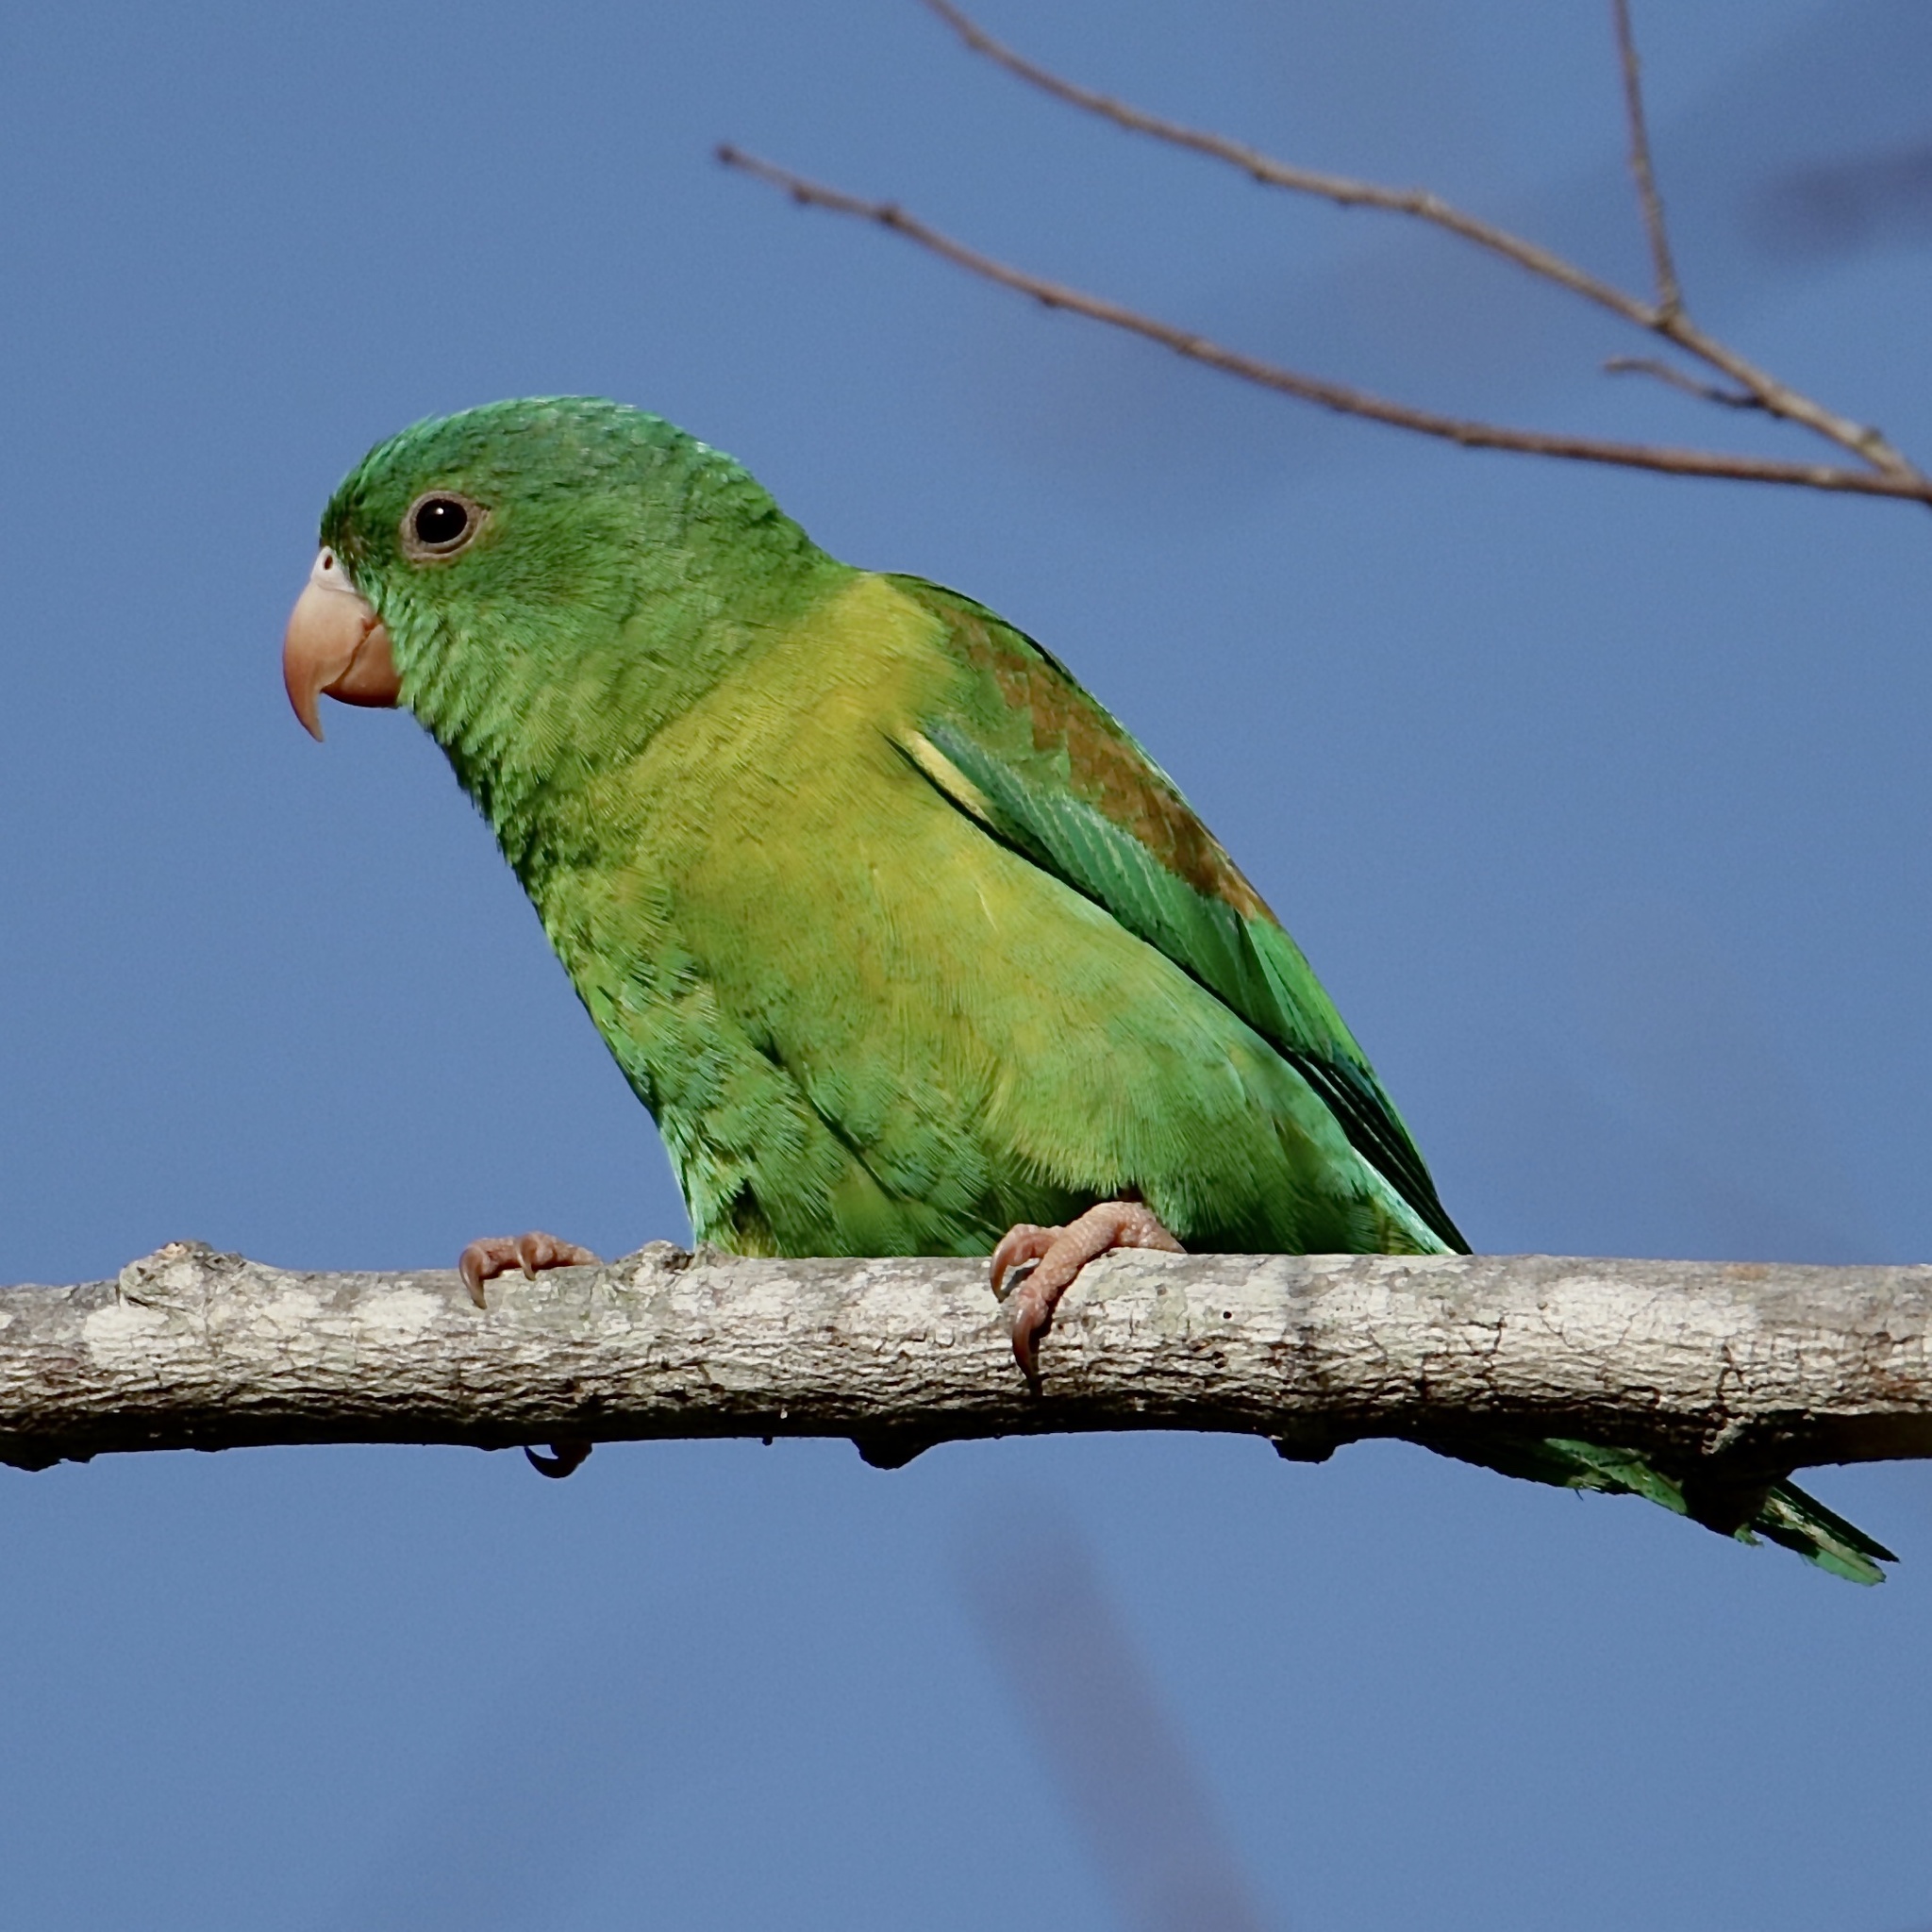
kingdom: Animalia
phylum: Chordata
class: Aves
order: Psittaciformes
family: Psittacidae
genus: Brotogeris
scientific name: Brotogeris jugularis
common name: Orange-chinned parakeet
